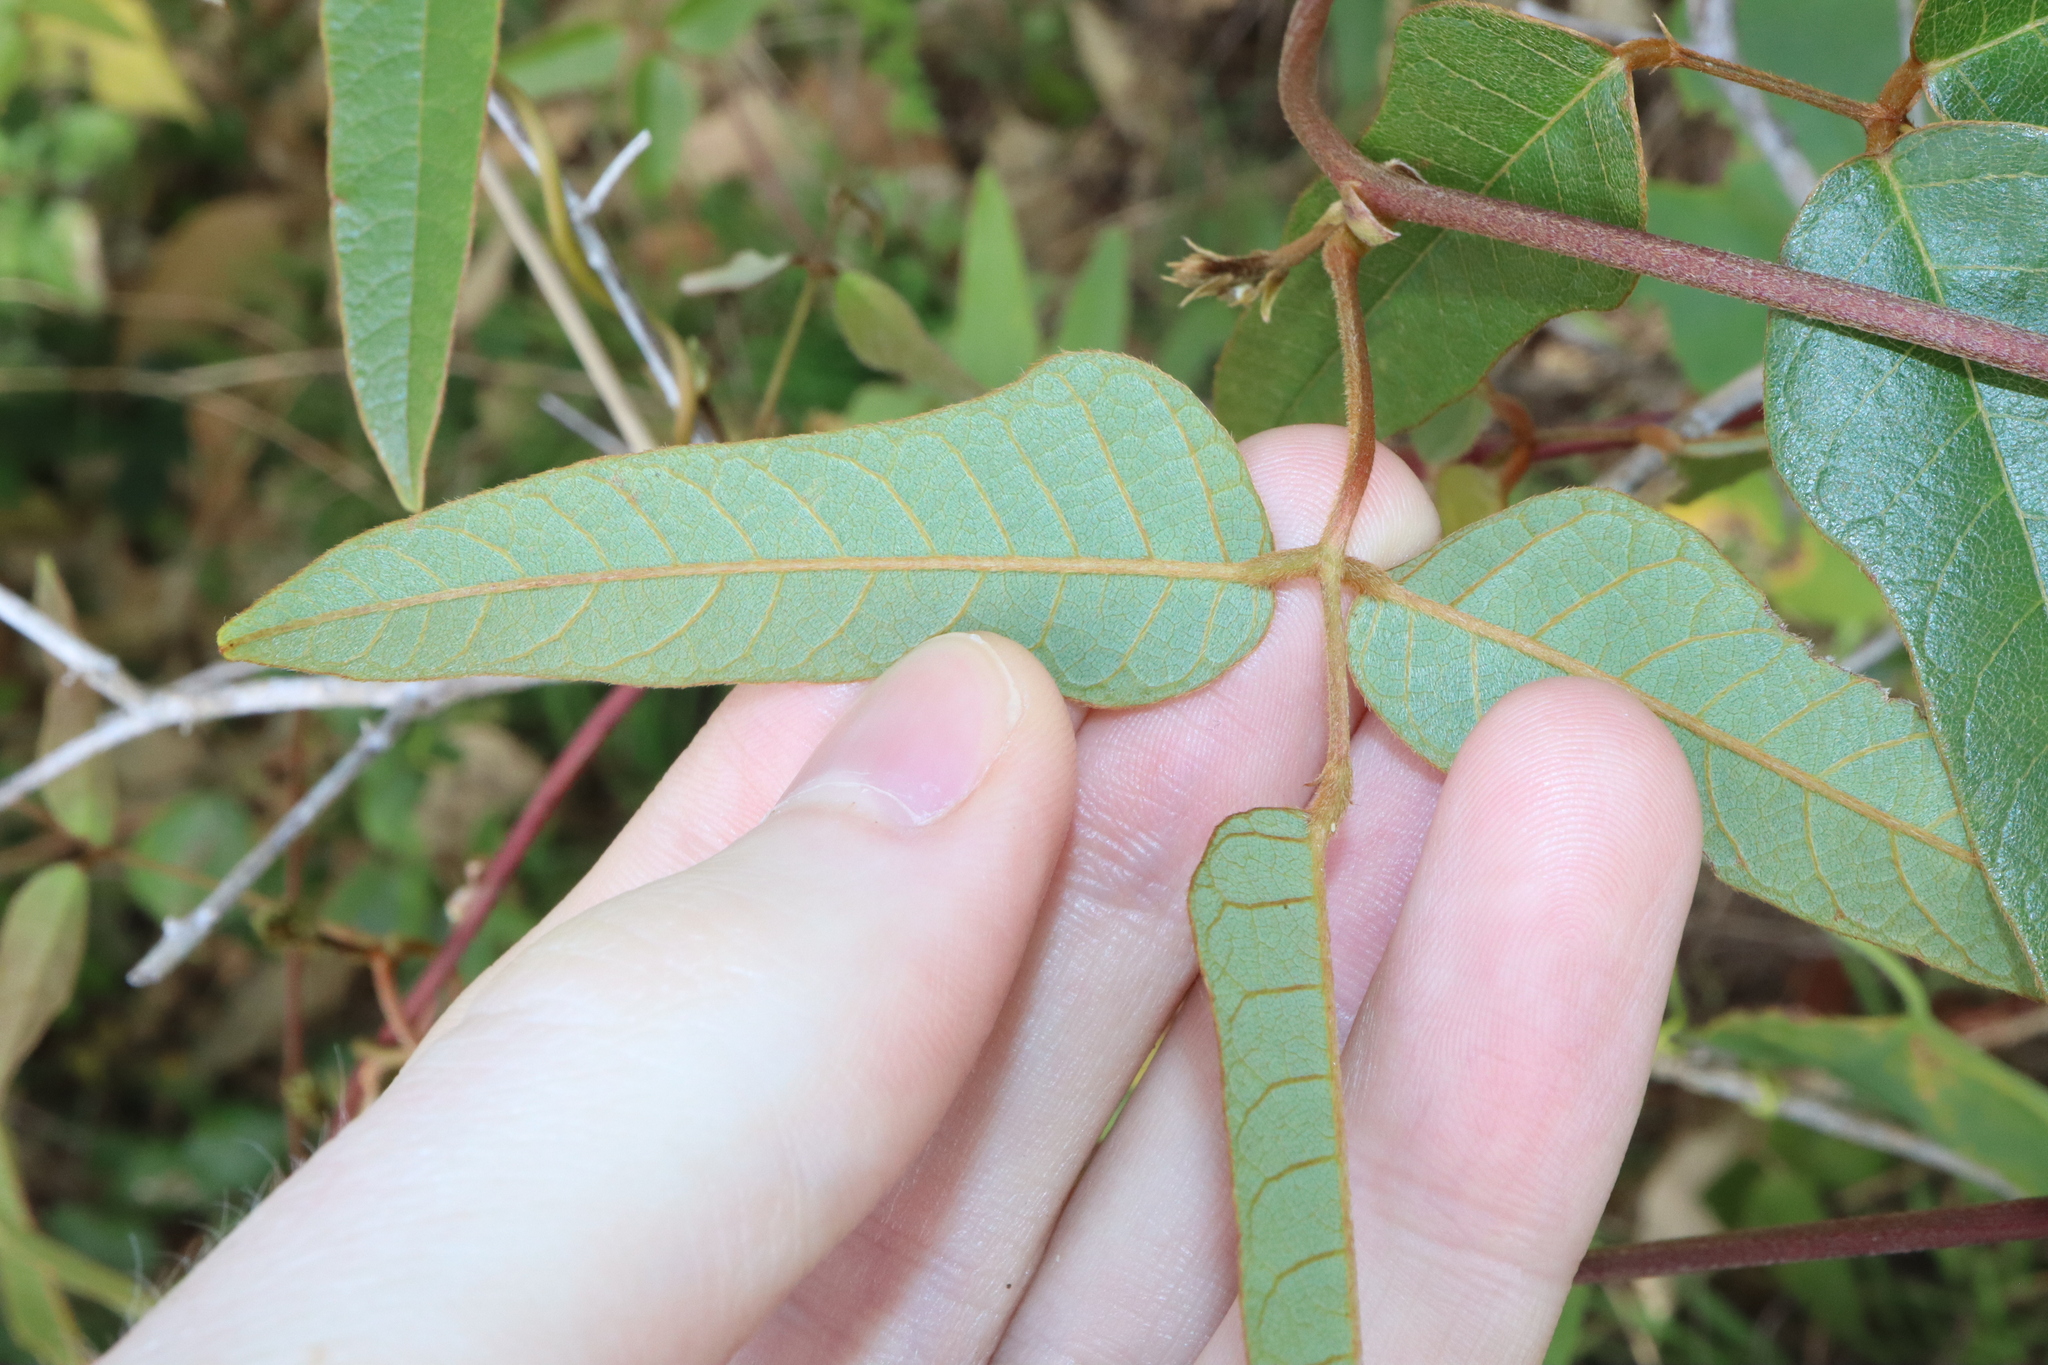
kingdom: Plantae
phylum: Tracheophyta
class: Magnoliopsida
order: Fabales
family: Fabaceae
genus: Kennedia
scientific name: Kennedia rubicunda
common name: Red kennedy-pea
